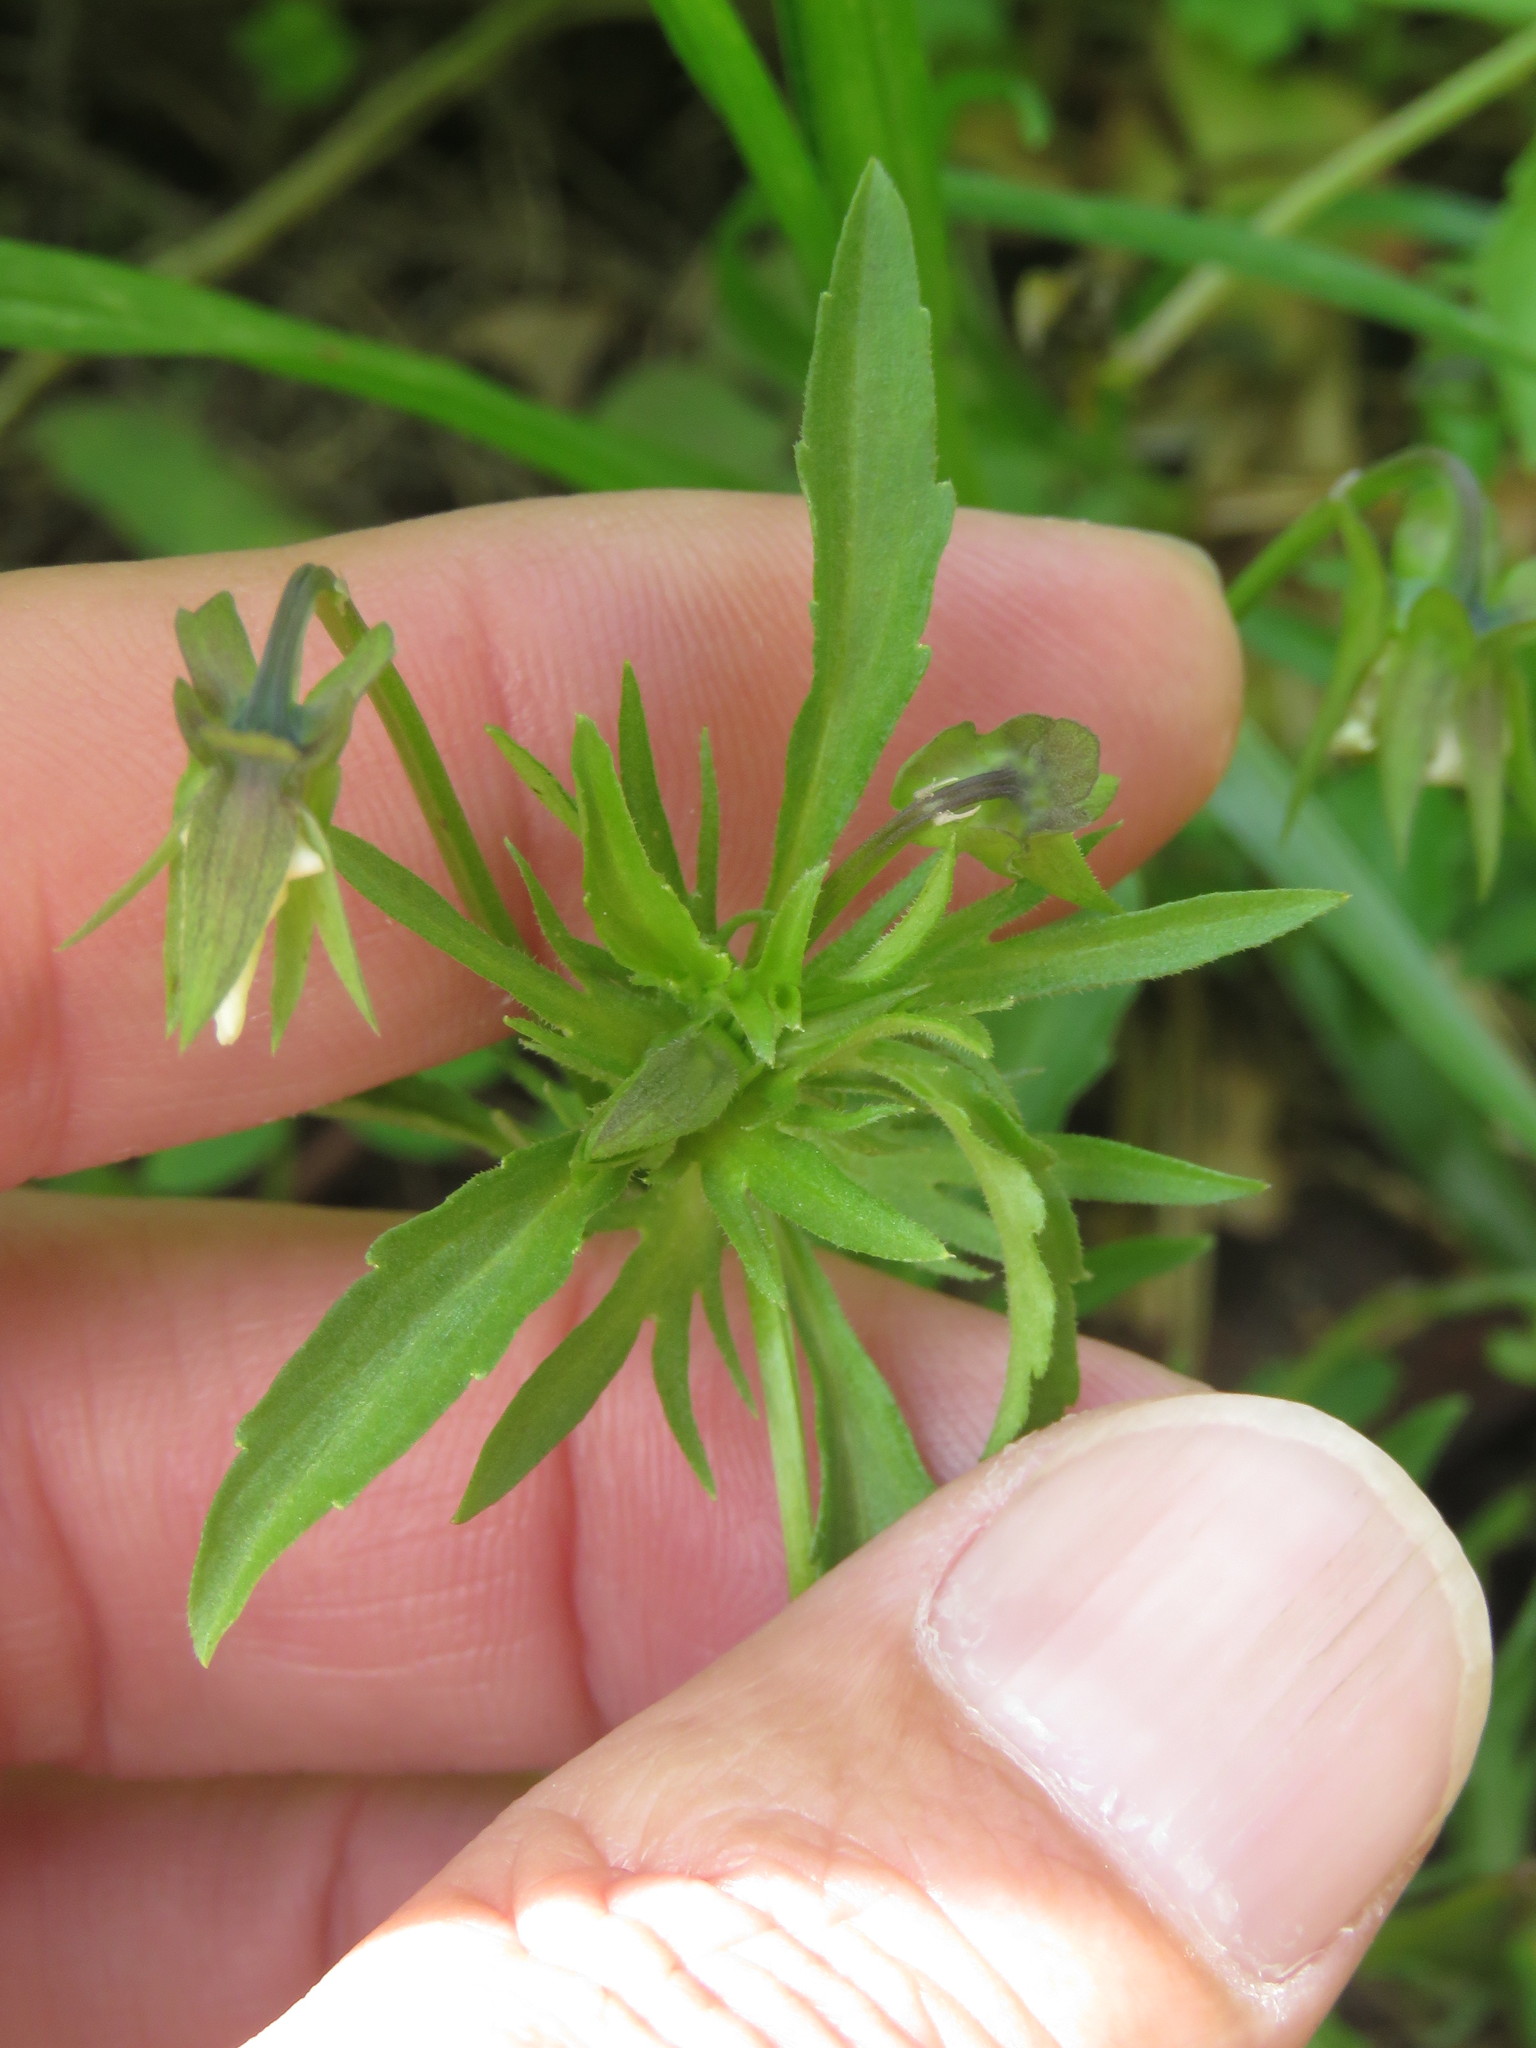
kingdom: Plantae
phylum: Tracheophyta
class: Magnoliopsida
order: Malpighiales
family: Violaceae
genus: Viola
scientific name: Viola arvensis
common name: Field pansy
